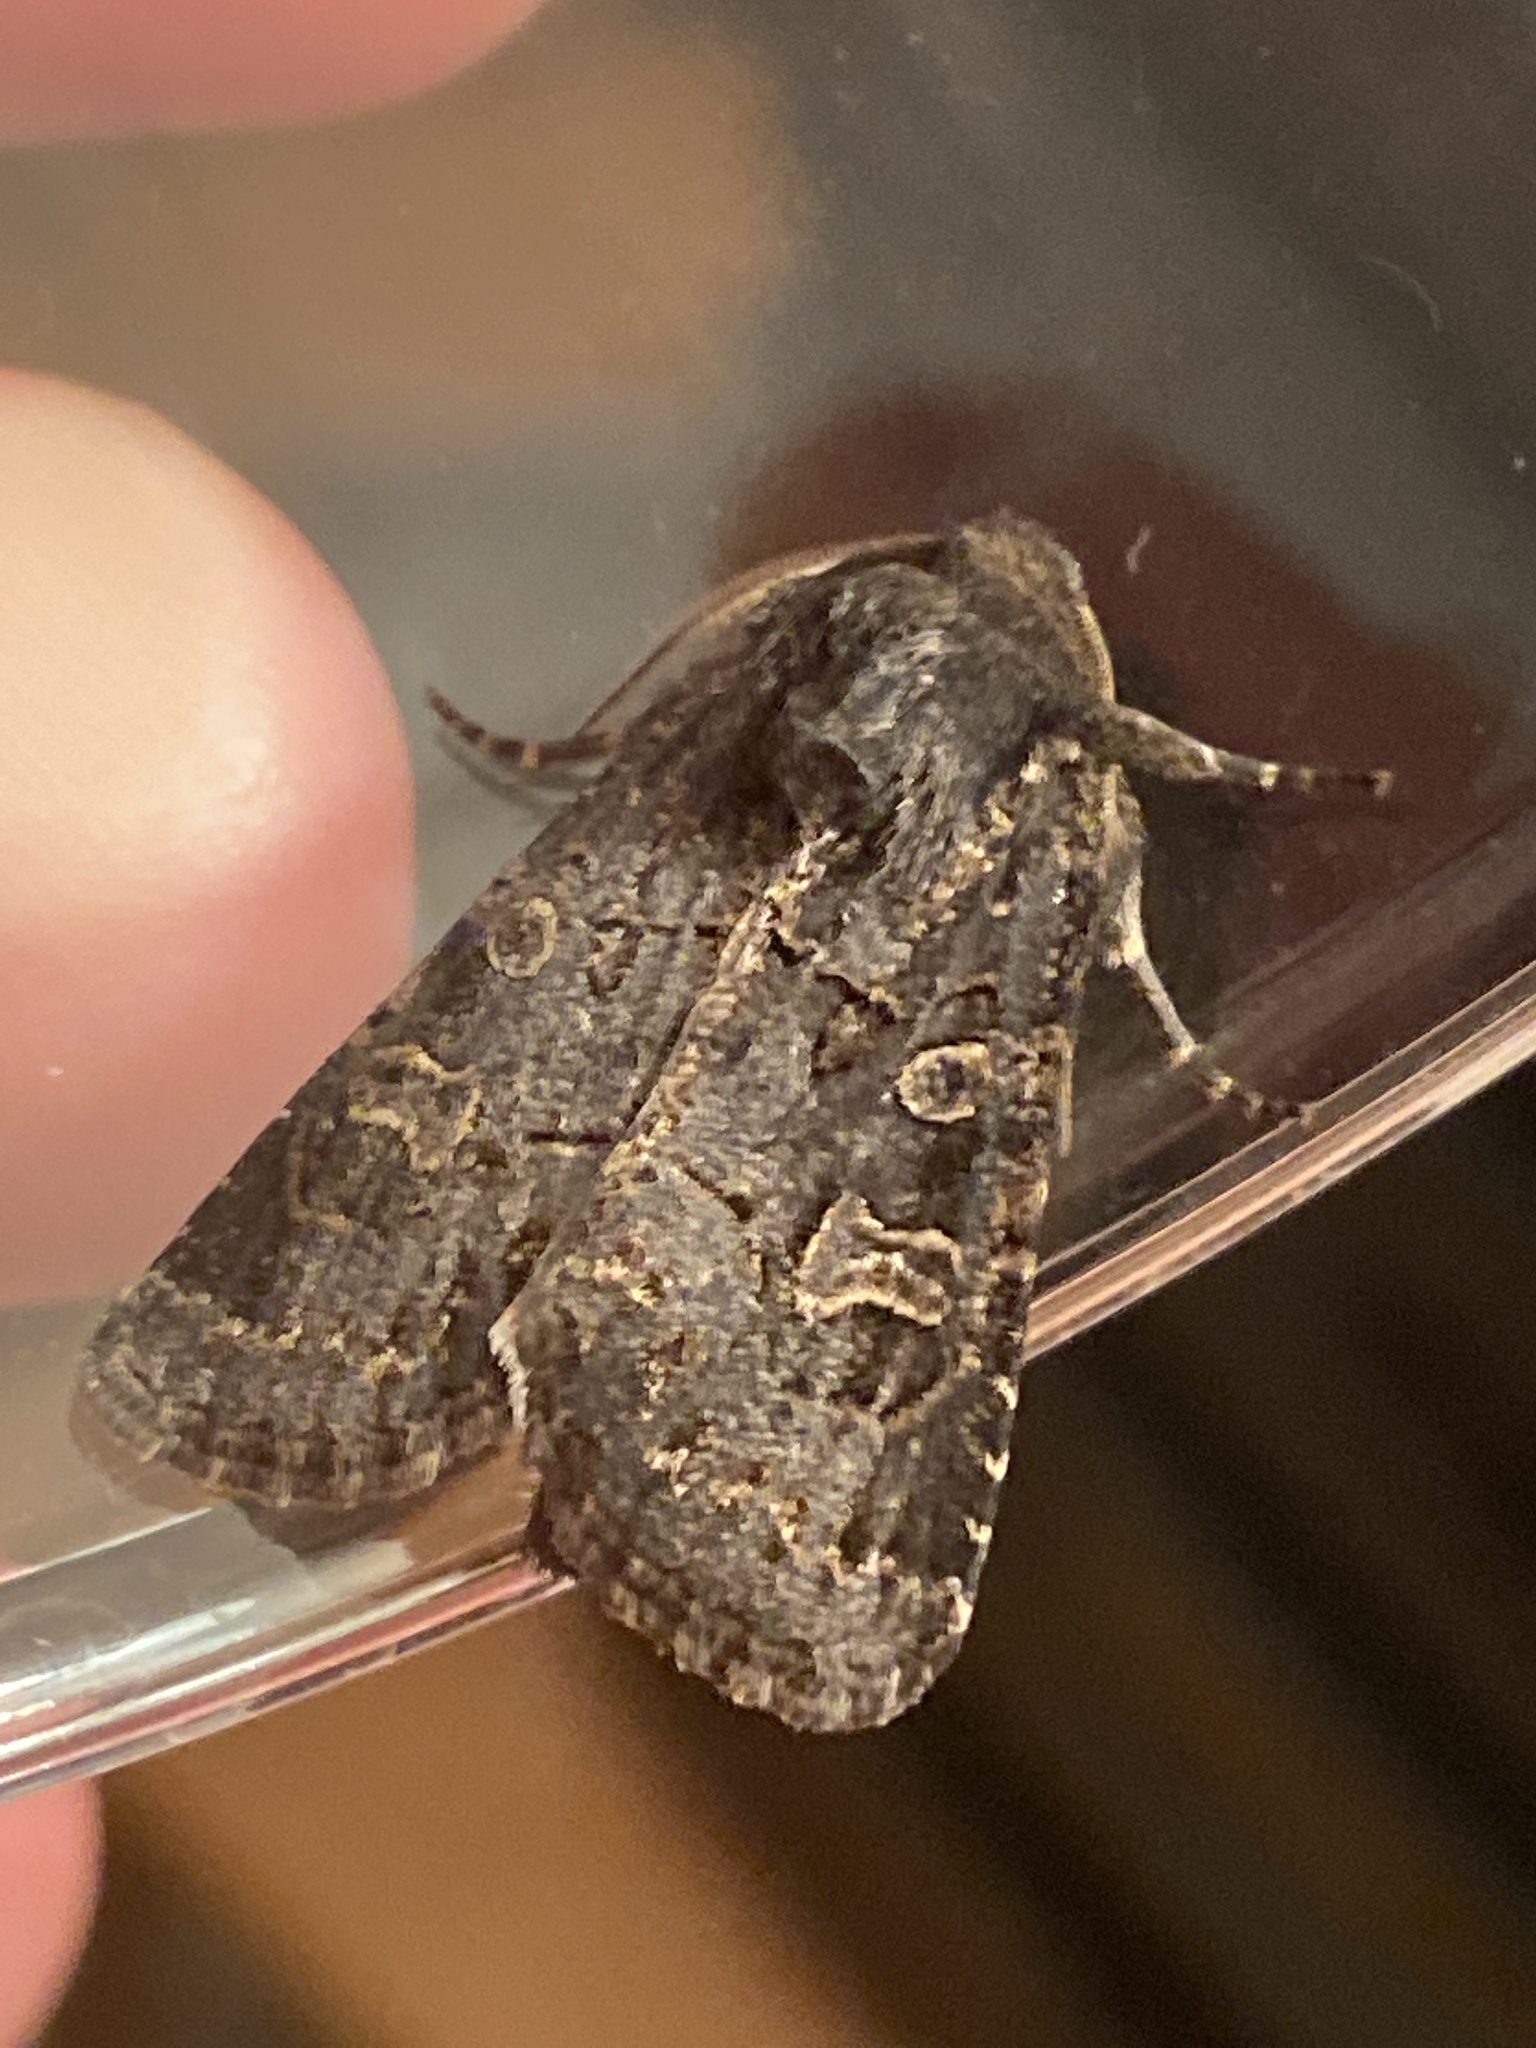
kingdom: Animalia
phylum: Arthropoda
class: Insecta
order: Lepidoptera
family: Noctuidae
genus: Tholera
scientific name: Tholera cespitis
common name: Hedge rustic
